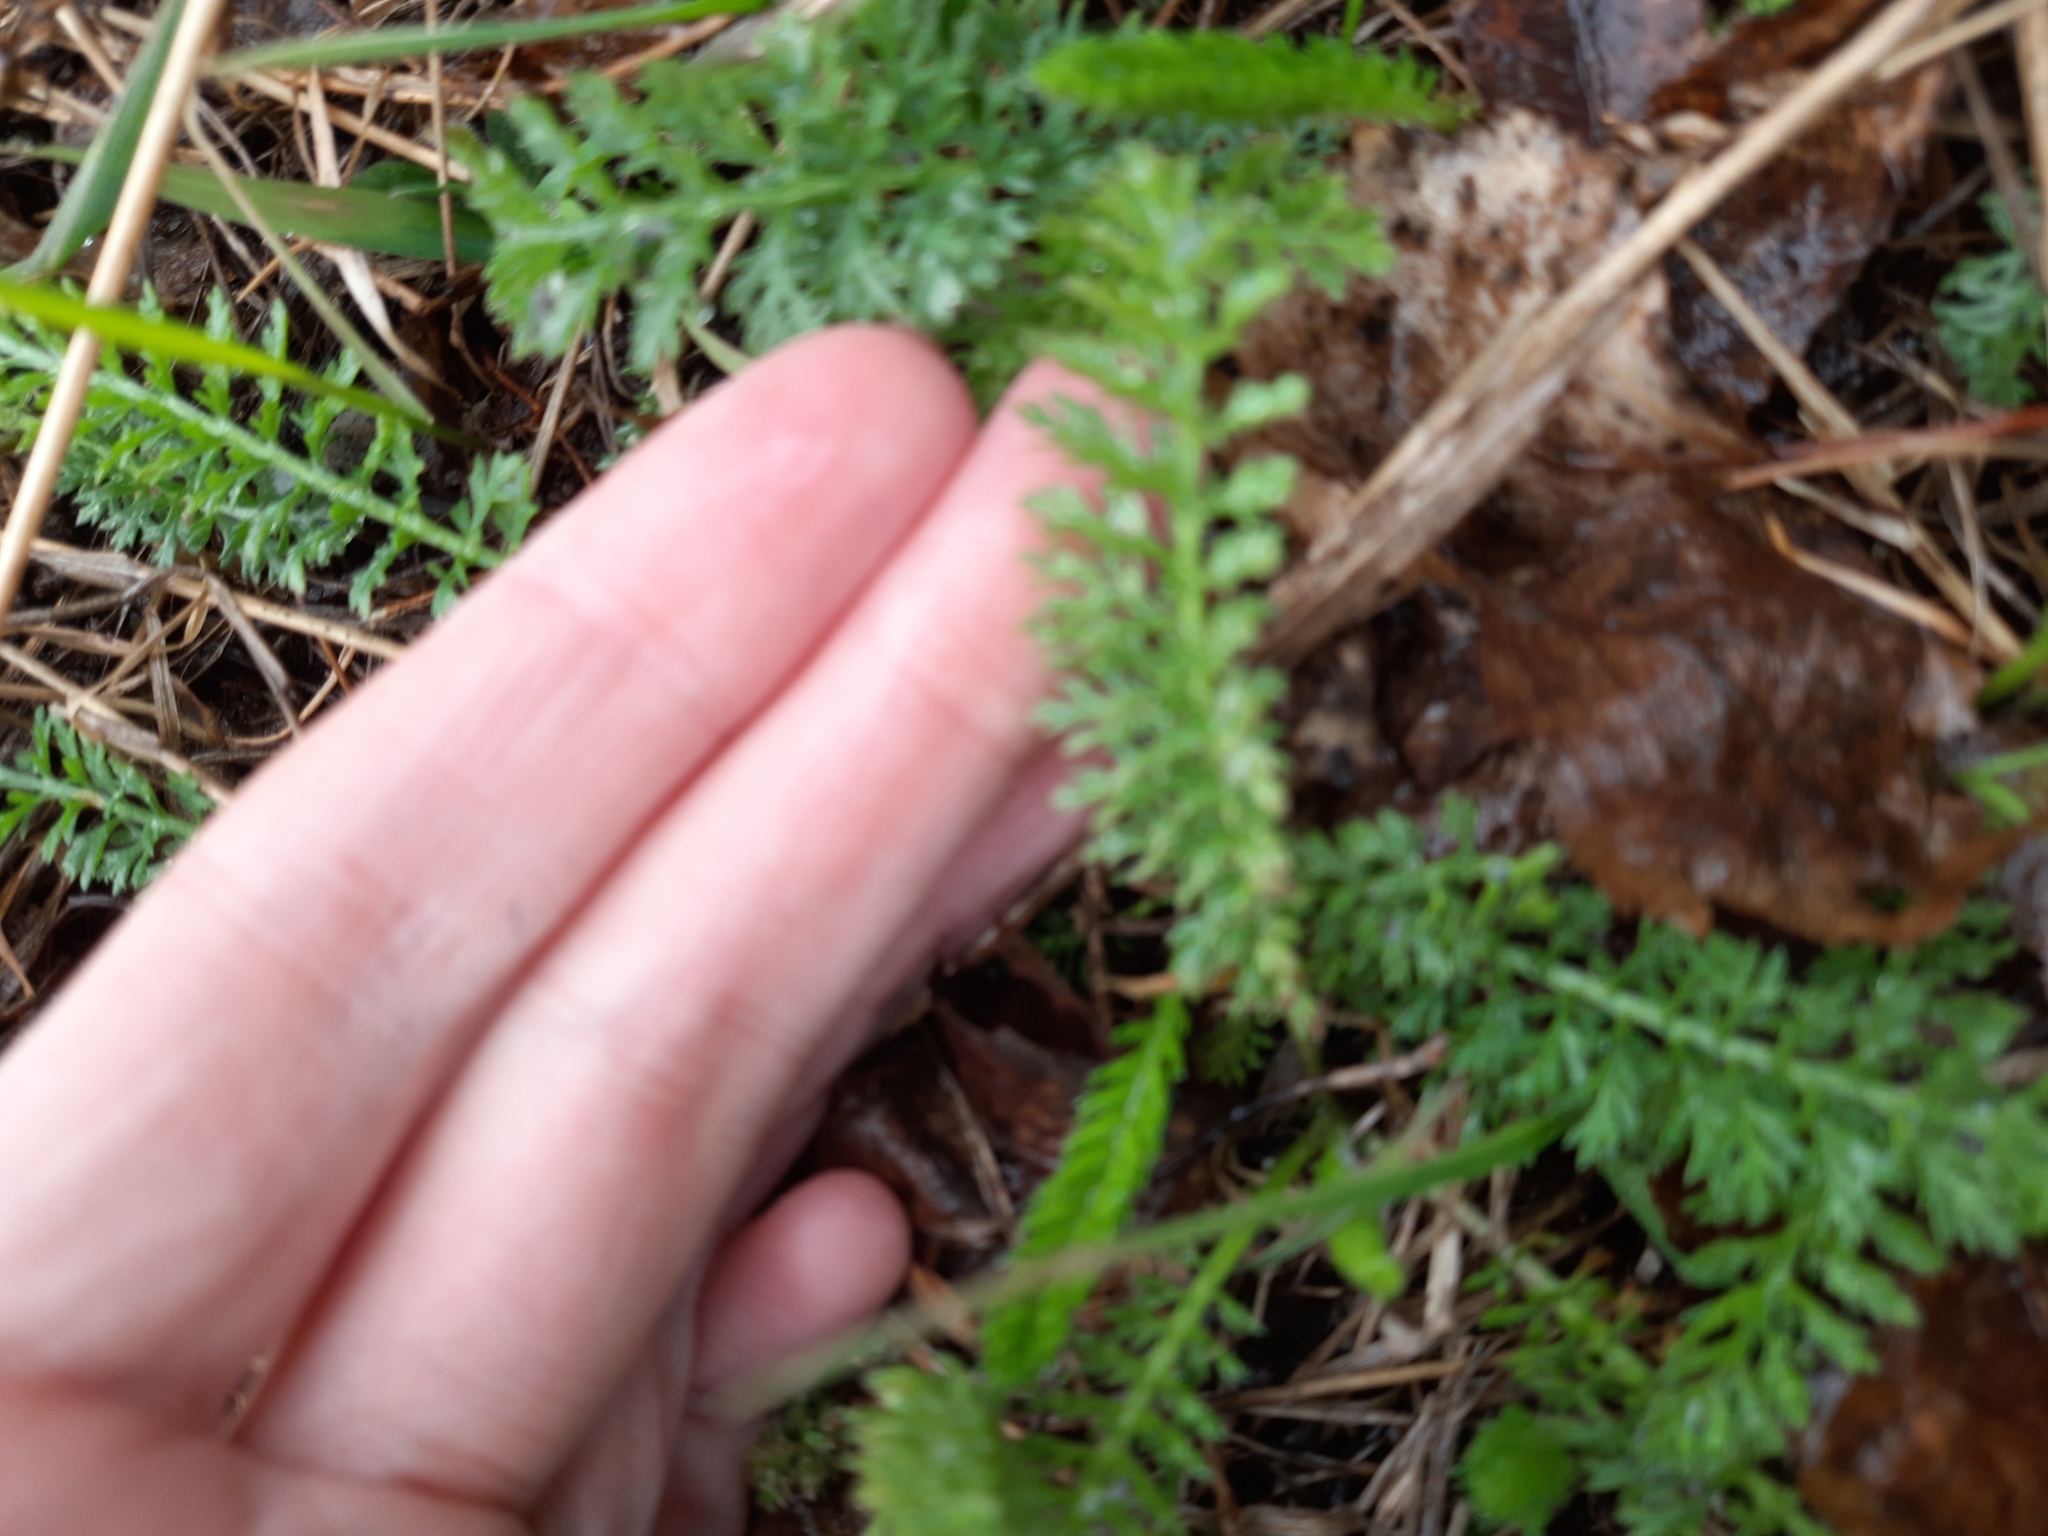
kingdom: Plantae
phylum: Tracheophyta
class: Magnoliopsida
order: Asterales
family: Asteraceae
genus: Achillea
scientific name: Achillea millefolium
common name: Yarrow
